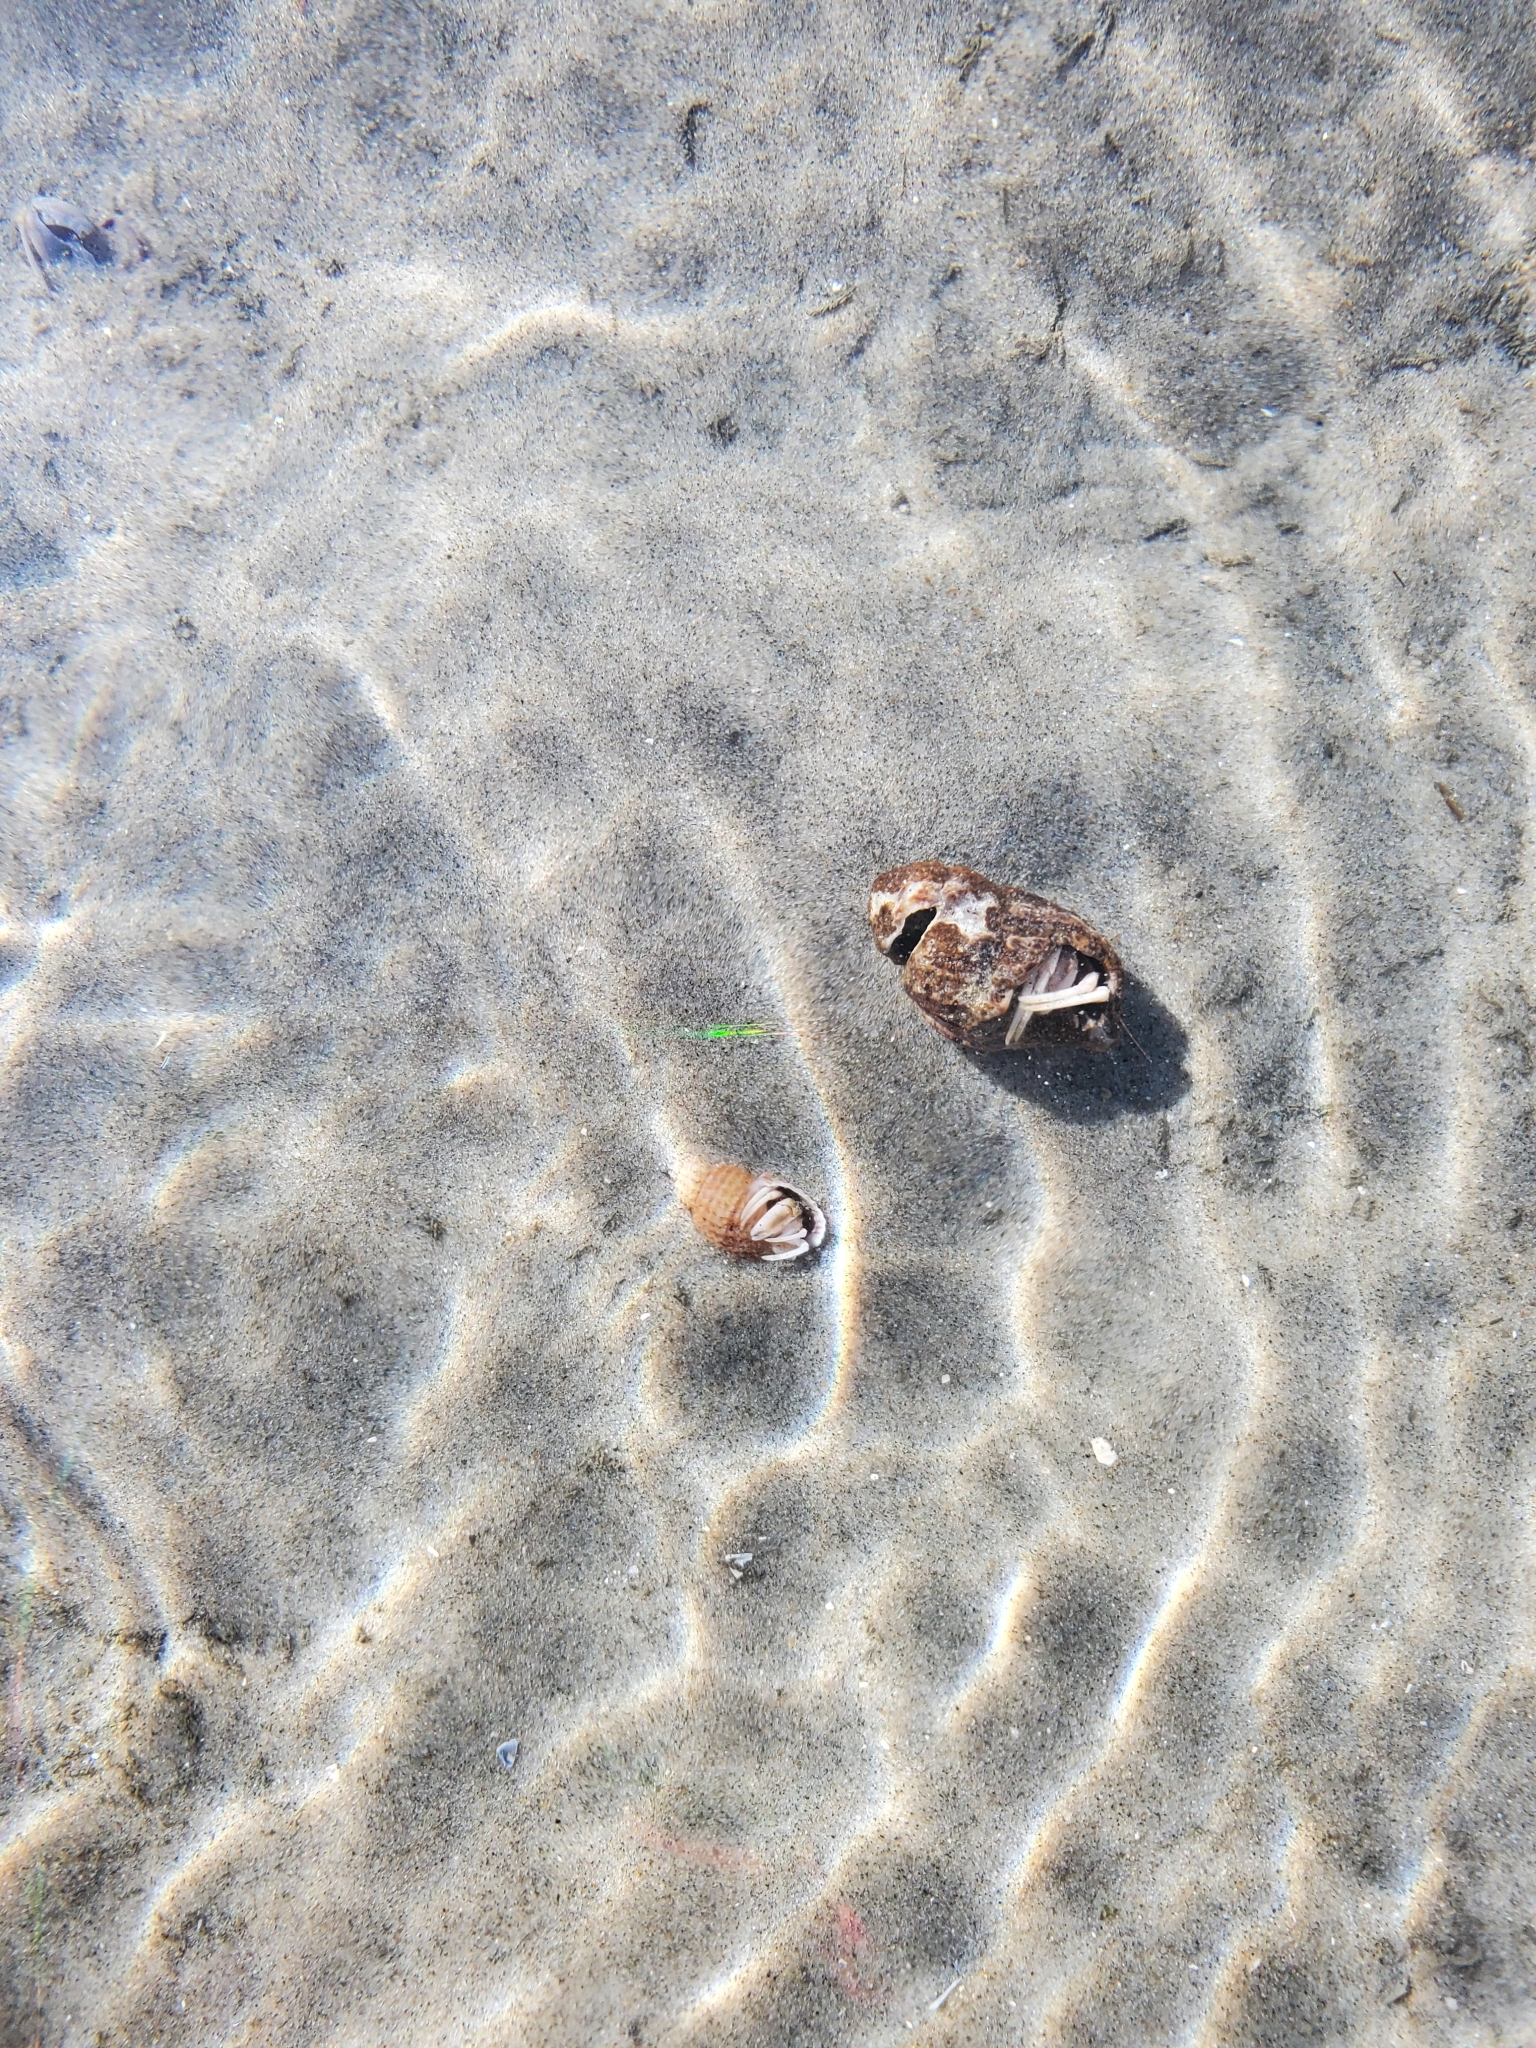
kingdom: Animalia
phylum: Arthropoda
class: Malacostraca
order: Decapoda
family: Paguridae
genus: Pagurus
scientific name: Pagurus longicarpus
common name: Long-armed hermit crab
